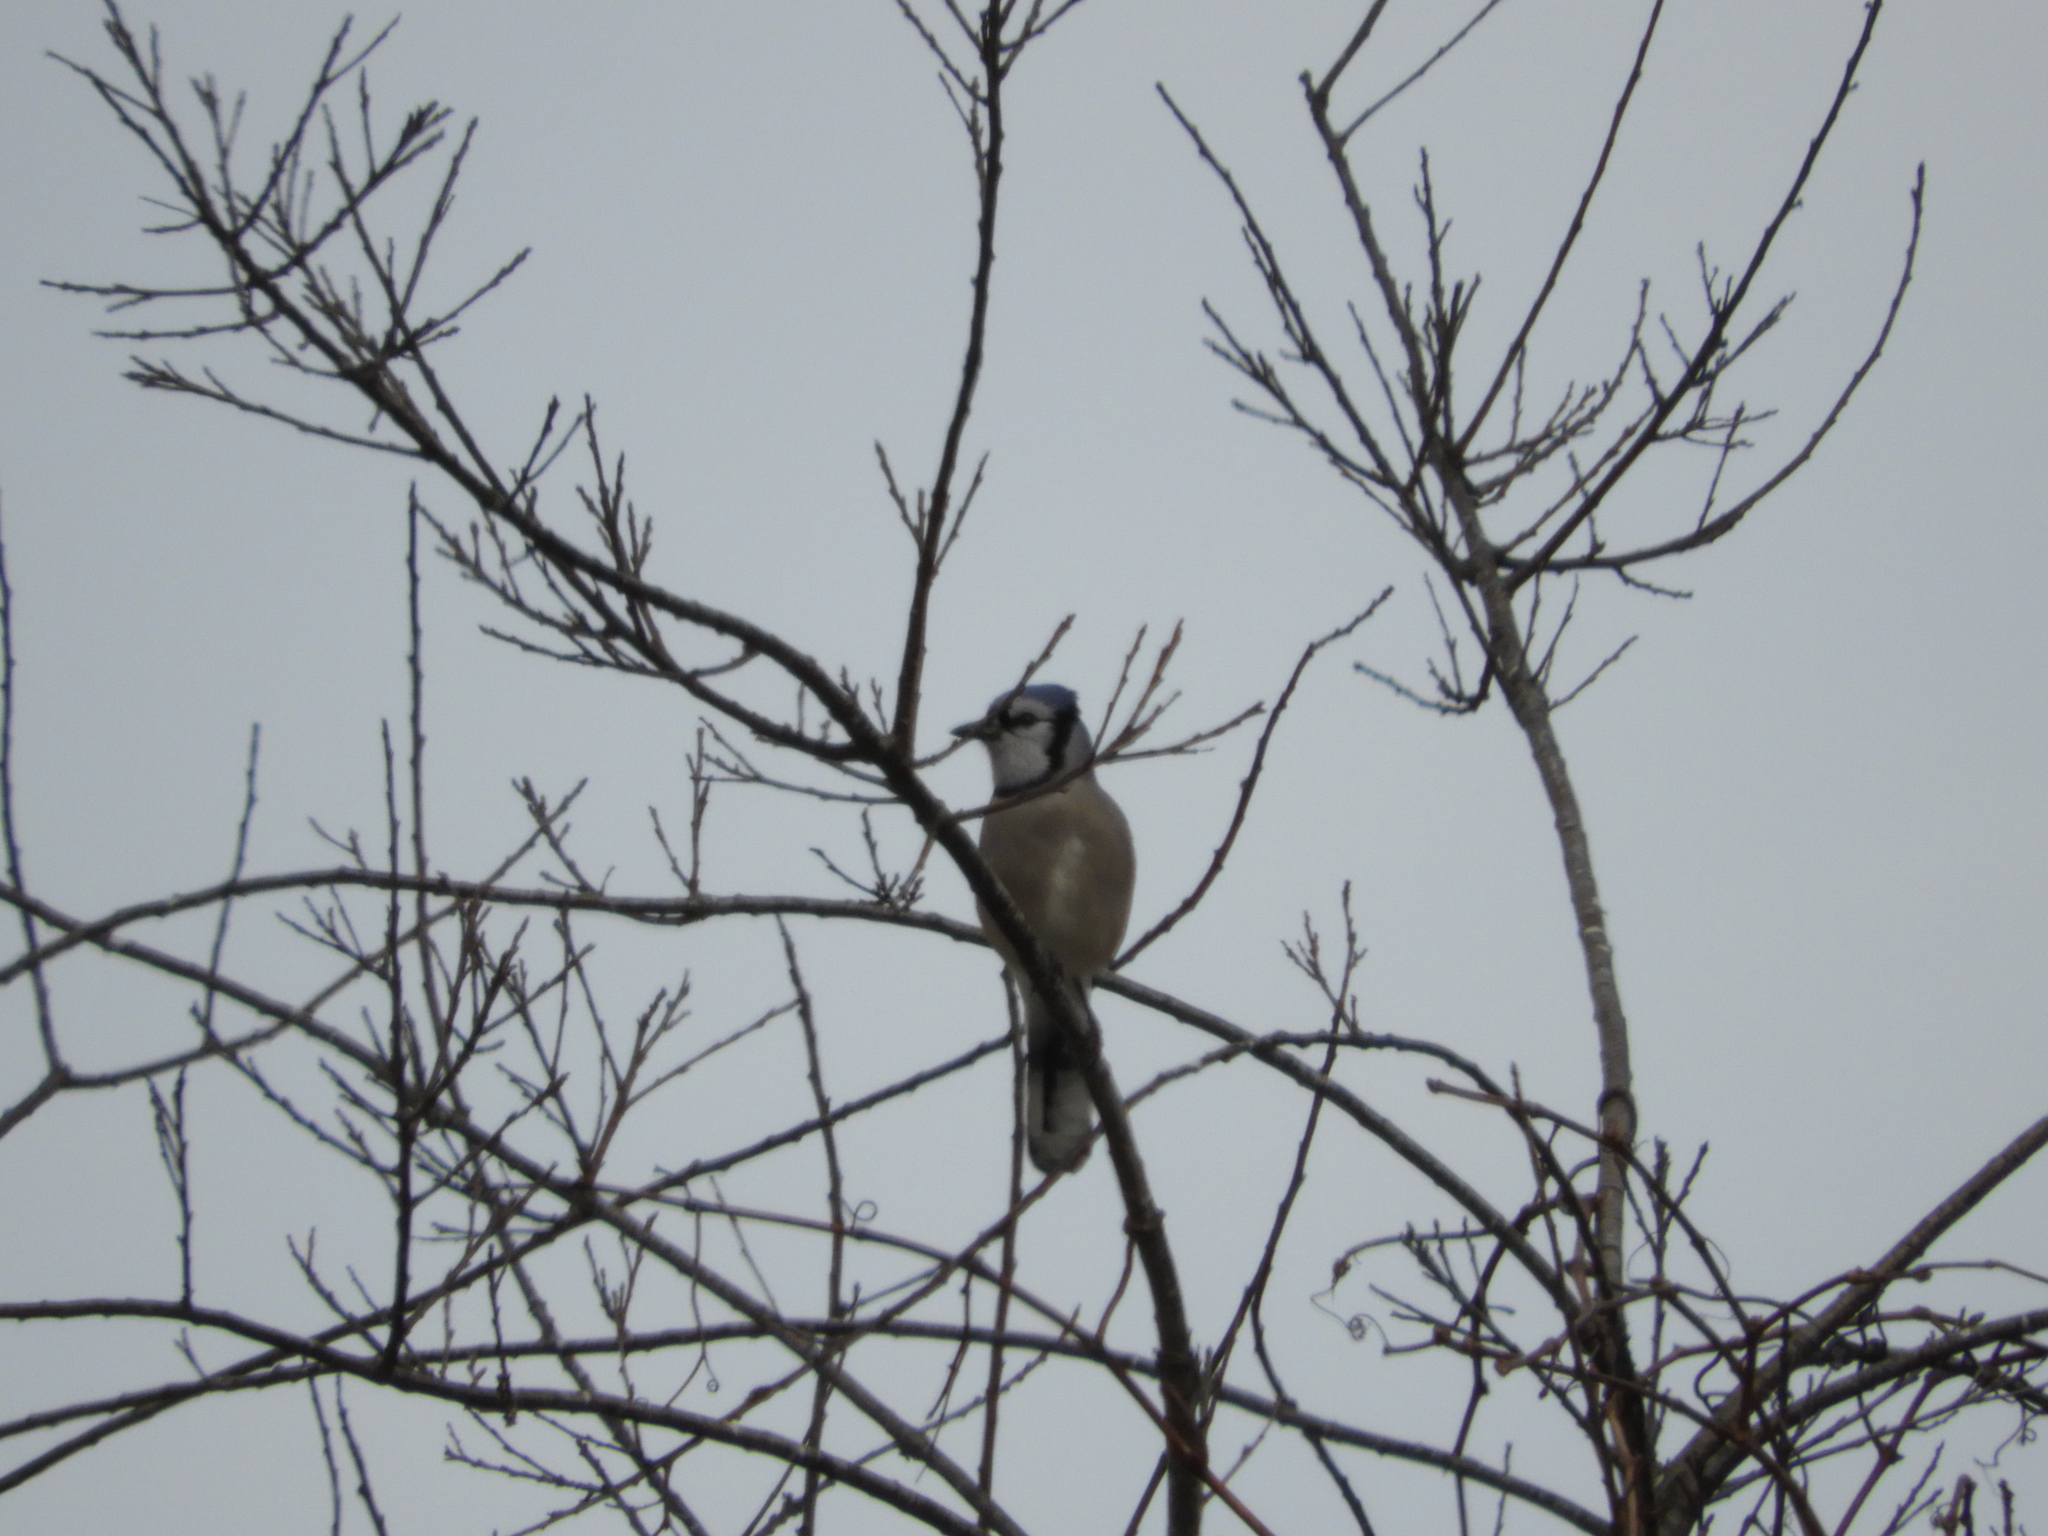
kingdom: Animalia
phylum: Chordata
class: Aves
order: Passeriformes
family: Corvidae
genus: Cyanocitta
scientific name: Cyanocitta cristata
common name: Blue jay
